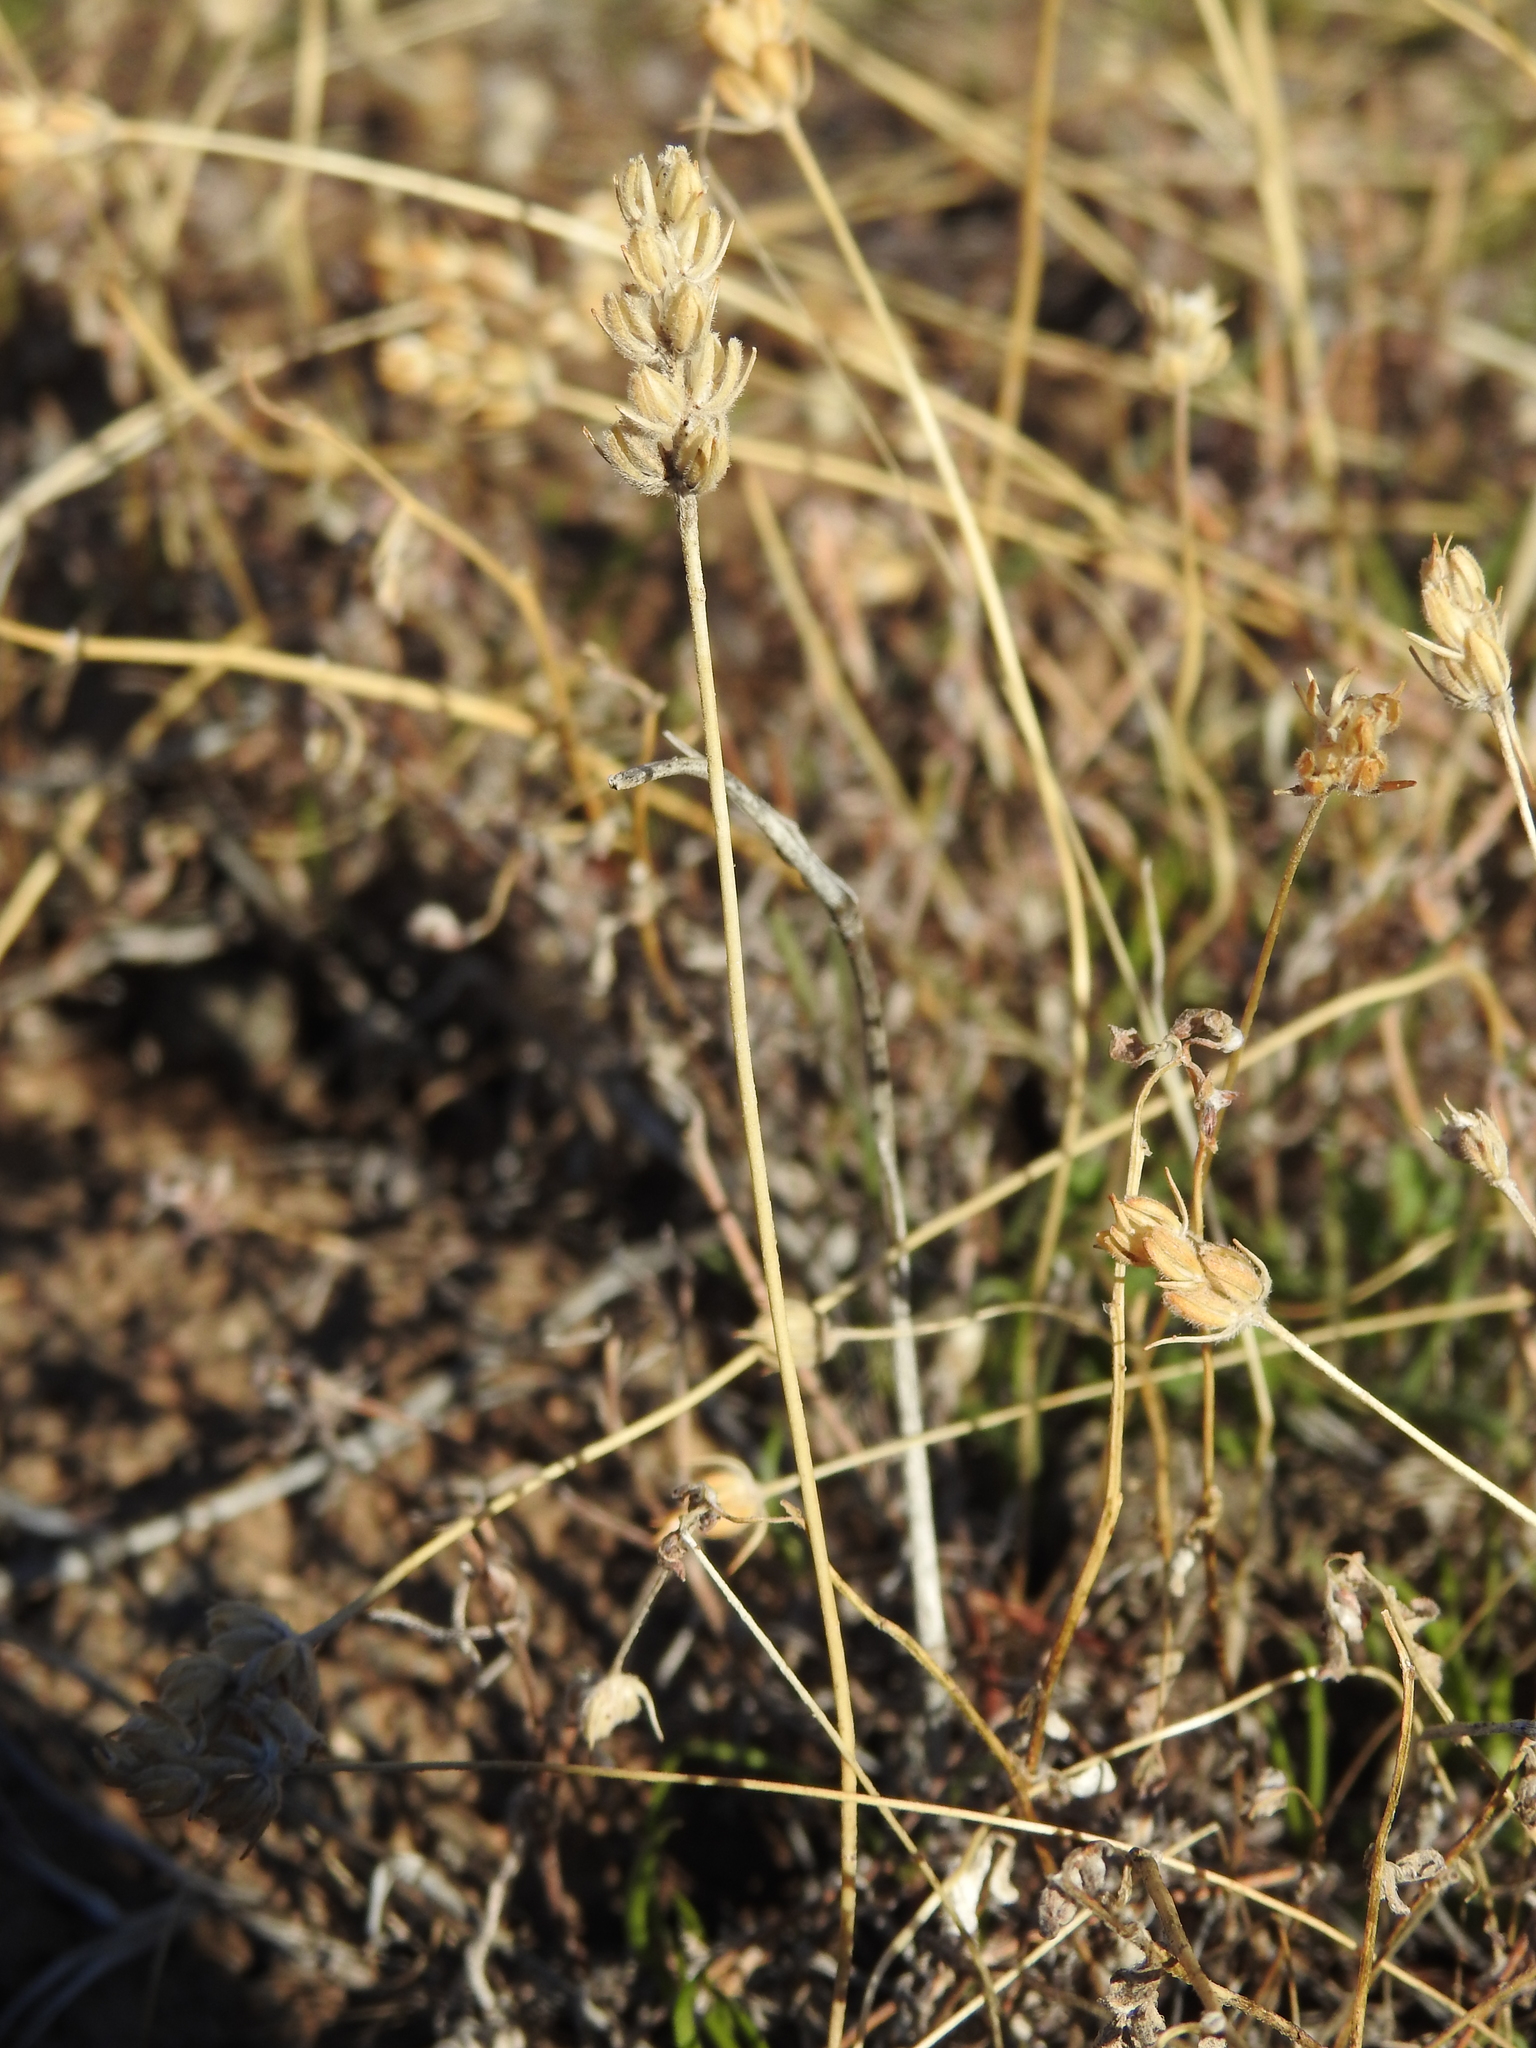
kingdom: Plantae
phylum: Tracheophyta
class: Magnoliopsida
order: Lamiales
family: Plantaginaceae
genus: Plantago
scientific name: Plantago patagonica
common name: Patagonia indian-wheat
